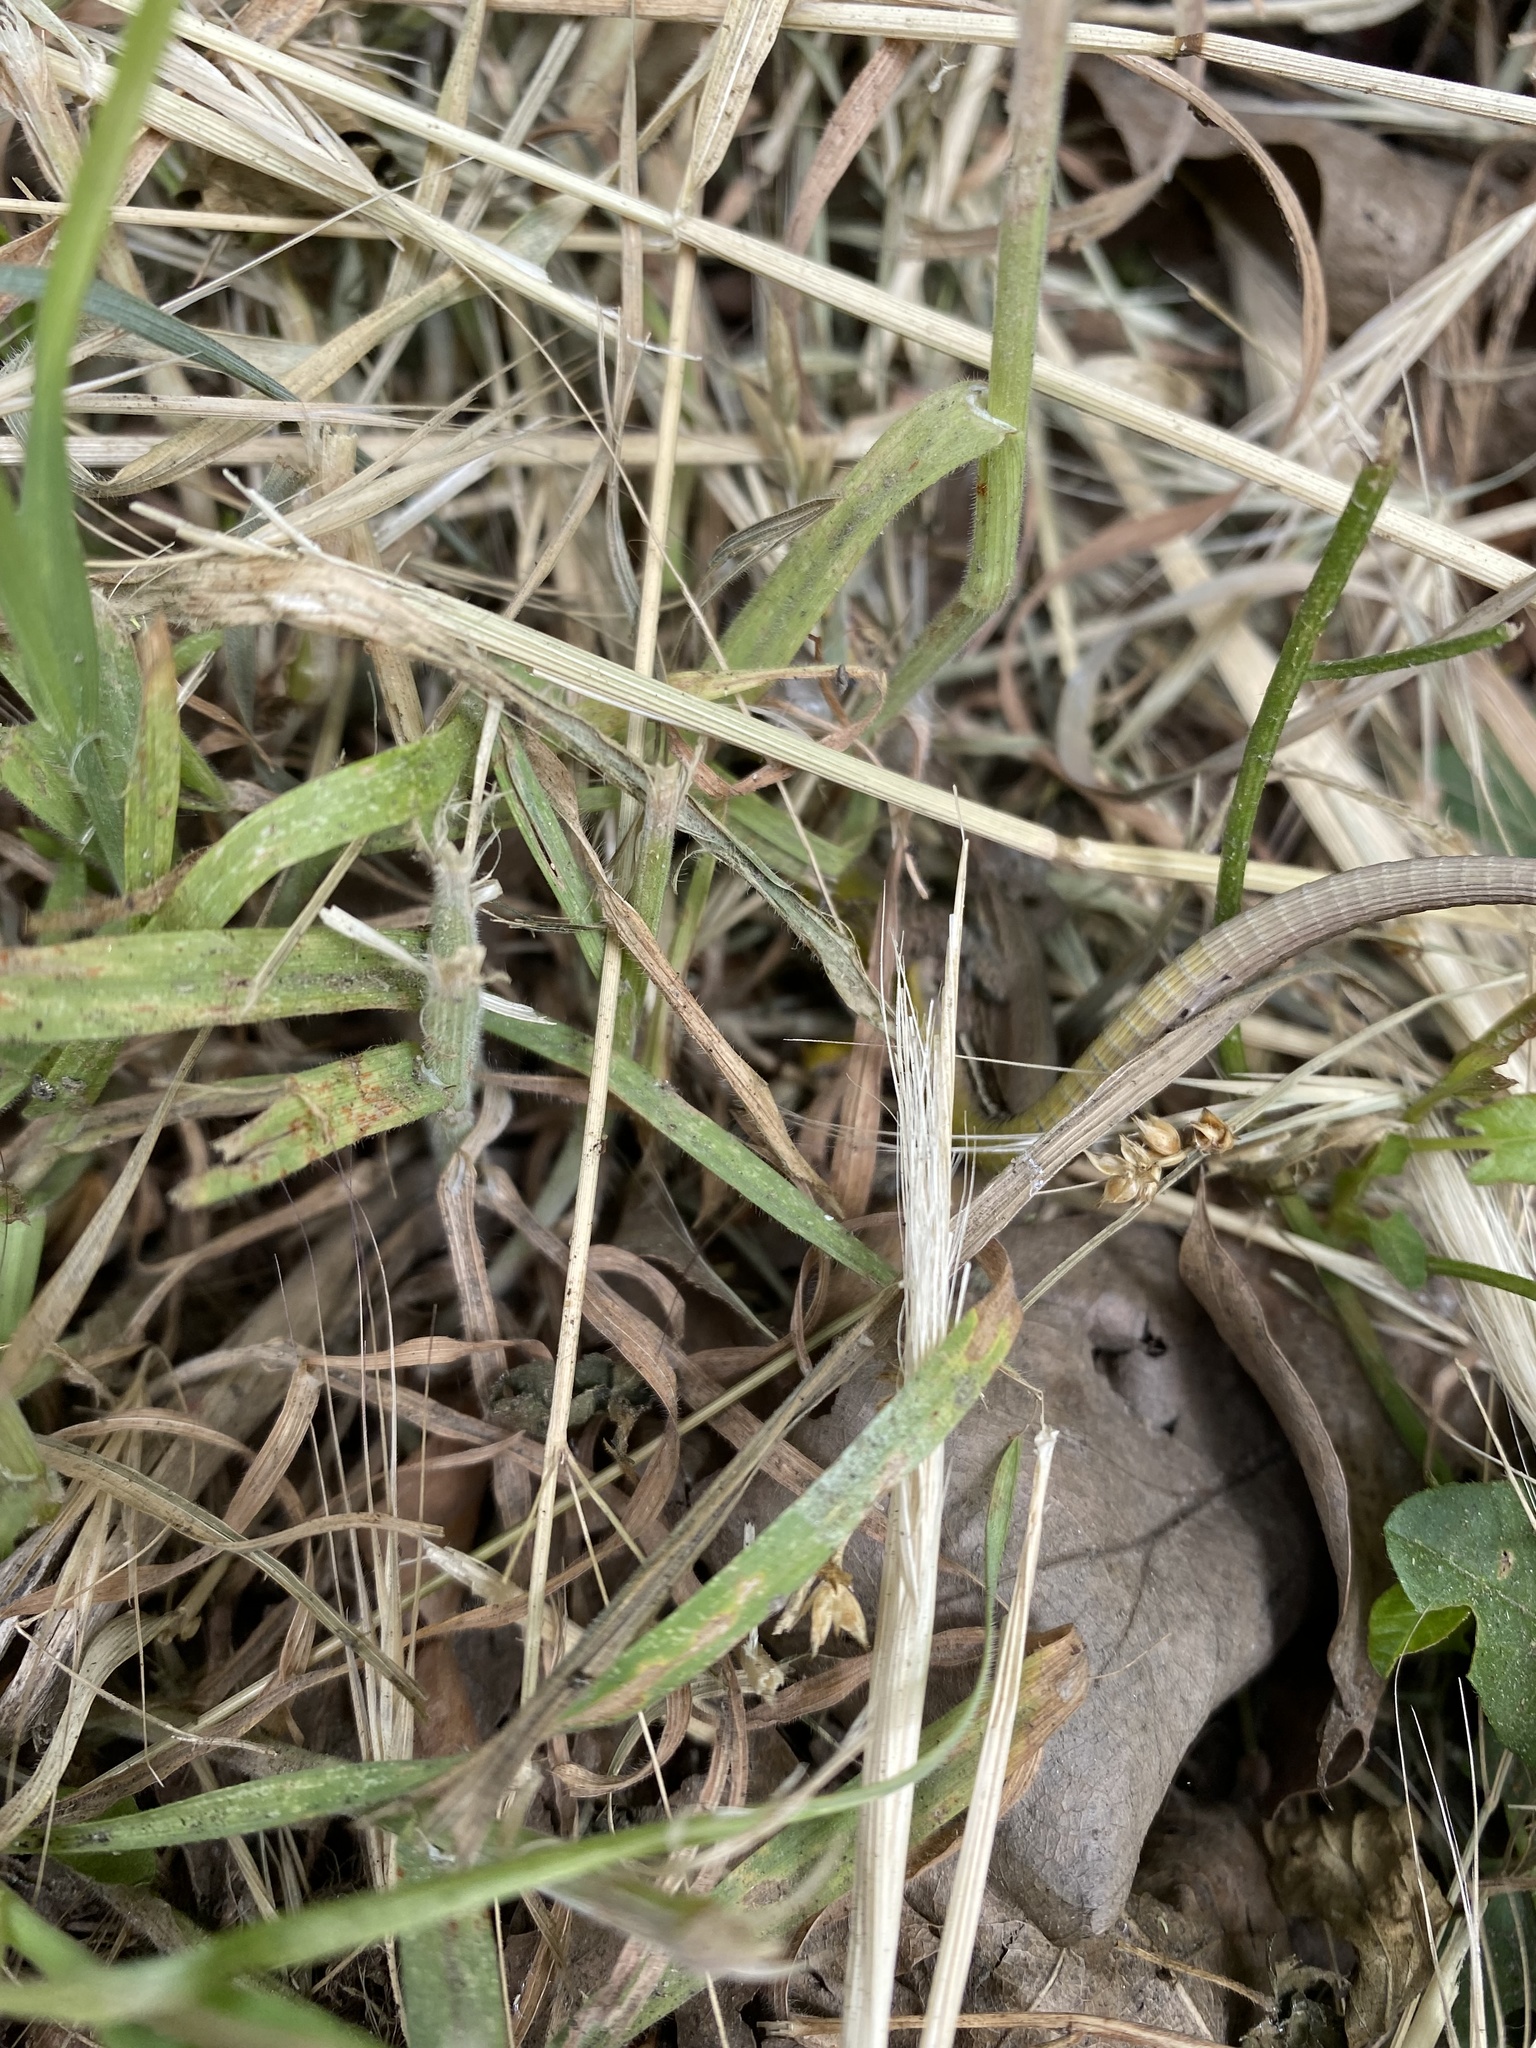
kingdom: Animalia
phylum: Chordata
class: Squamata
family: Lacertidae
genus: Darevskia
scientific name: Darevskia praticola
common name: Meadow lizard
